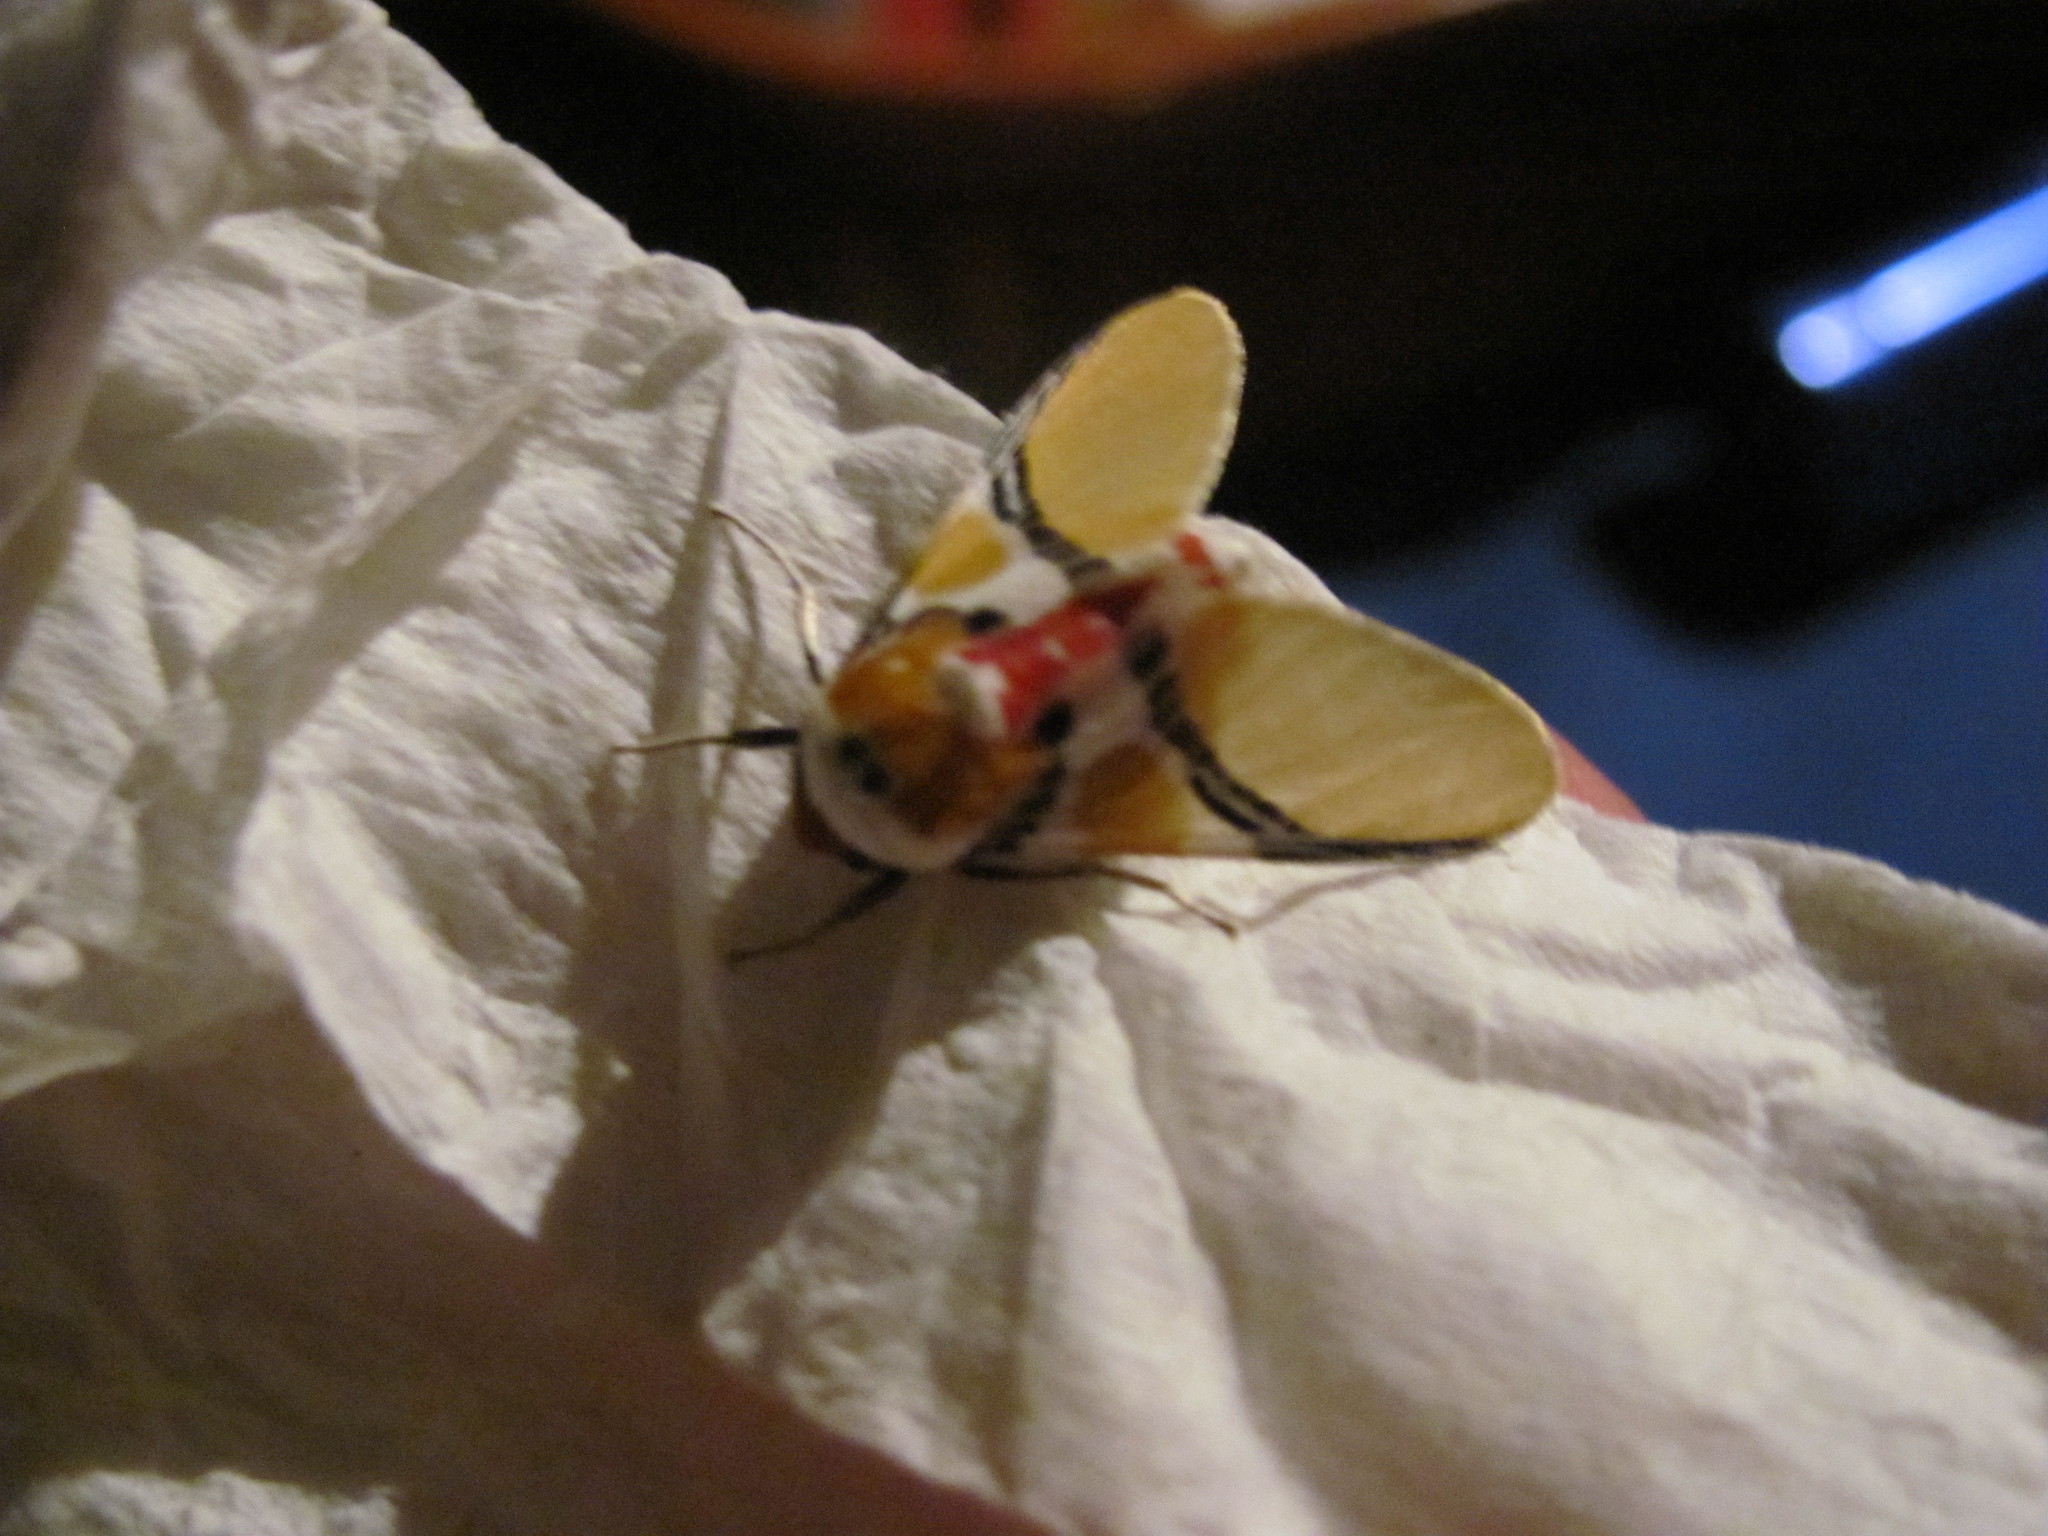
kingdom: Animalia
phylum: Arthropoda
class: Insecta
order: Lepidoptera
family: Erebidae
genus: Idalus
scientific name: Idalus critheis
